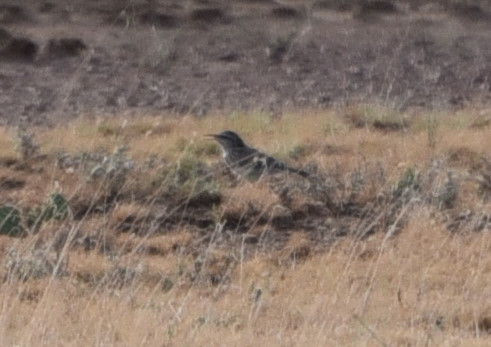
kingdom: Animalia
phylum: Chordata
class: Aves
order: Passeriformes
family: Troglodytidae
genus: Campylorhynchus
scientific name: Campylorhynchus brunneicapillus
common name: Cactus wren
